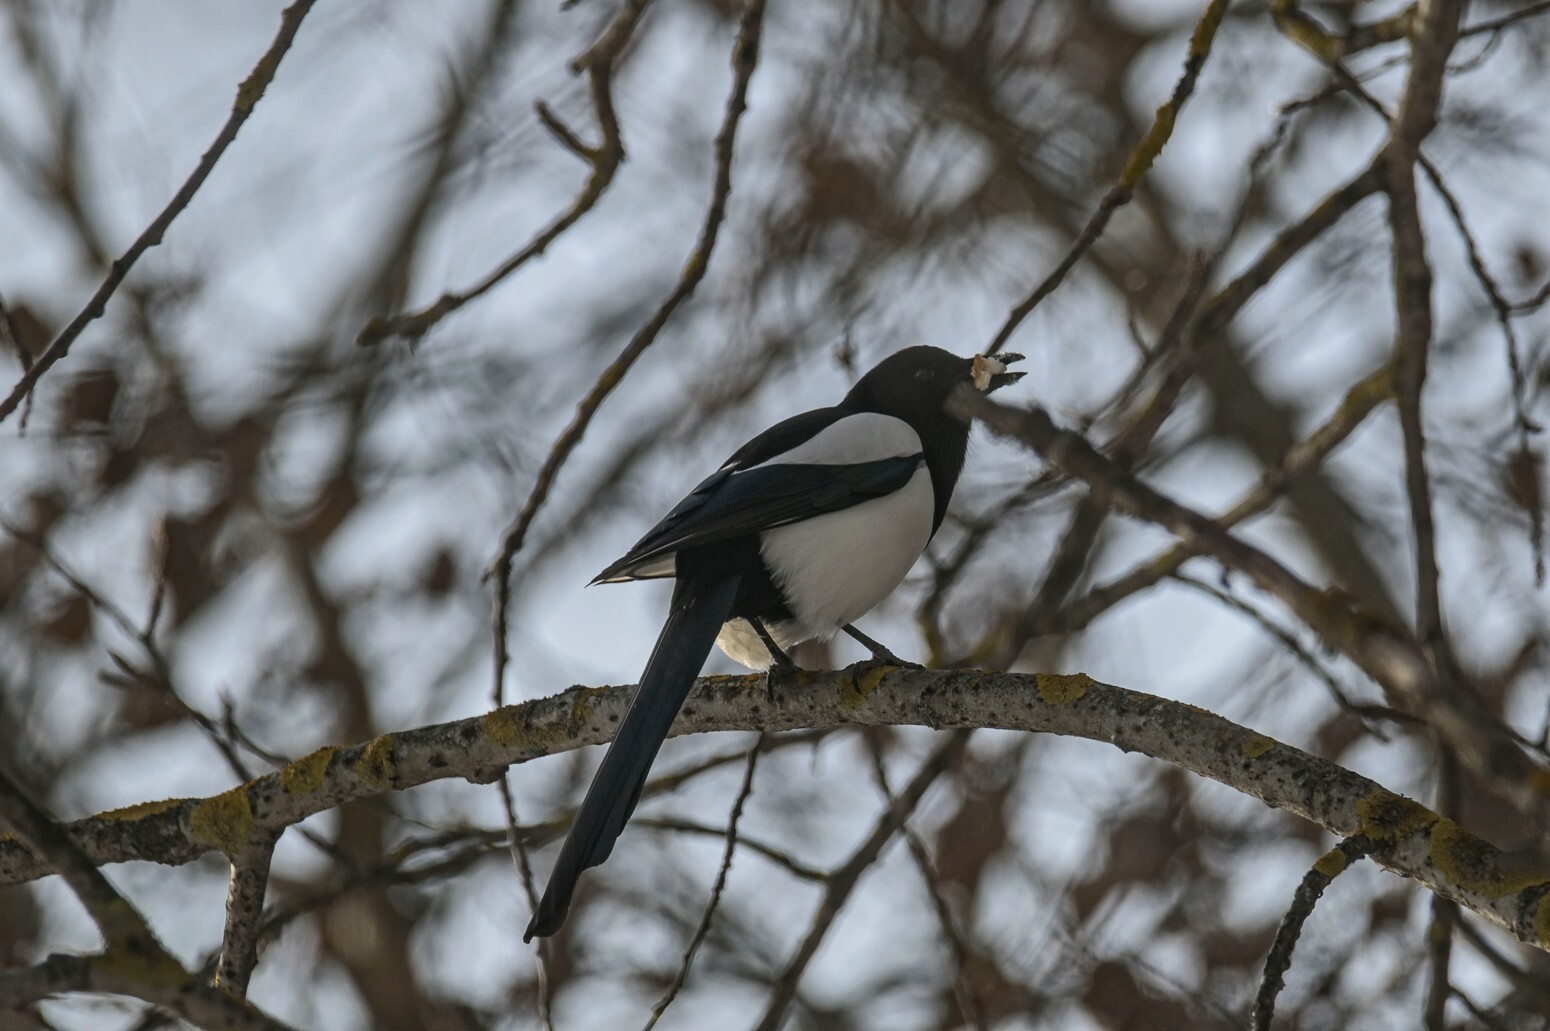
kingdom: Animalia
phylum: Chordata
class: Aves
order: Passeriformes
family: Corvidae
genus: Pica
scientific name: Pica pica
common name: Eurasian magpie
